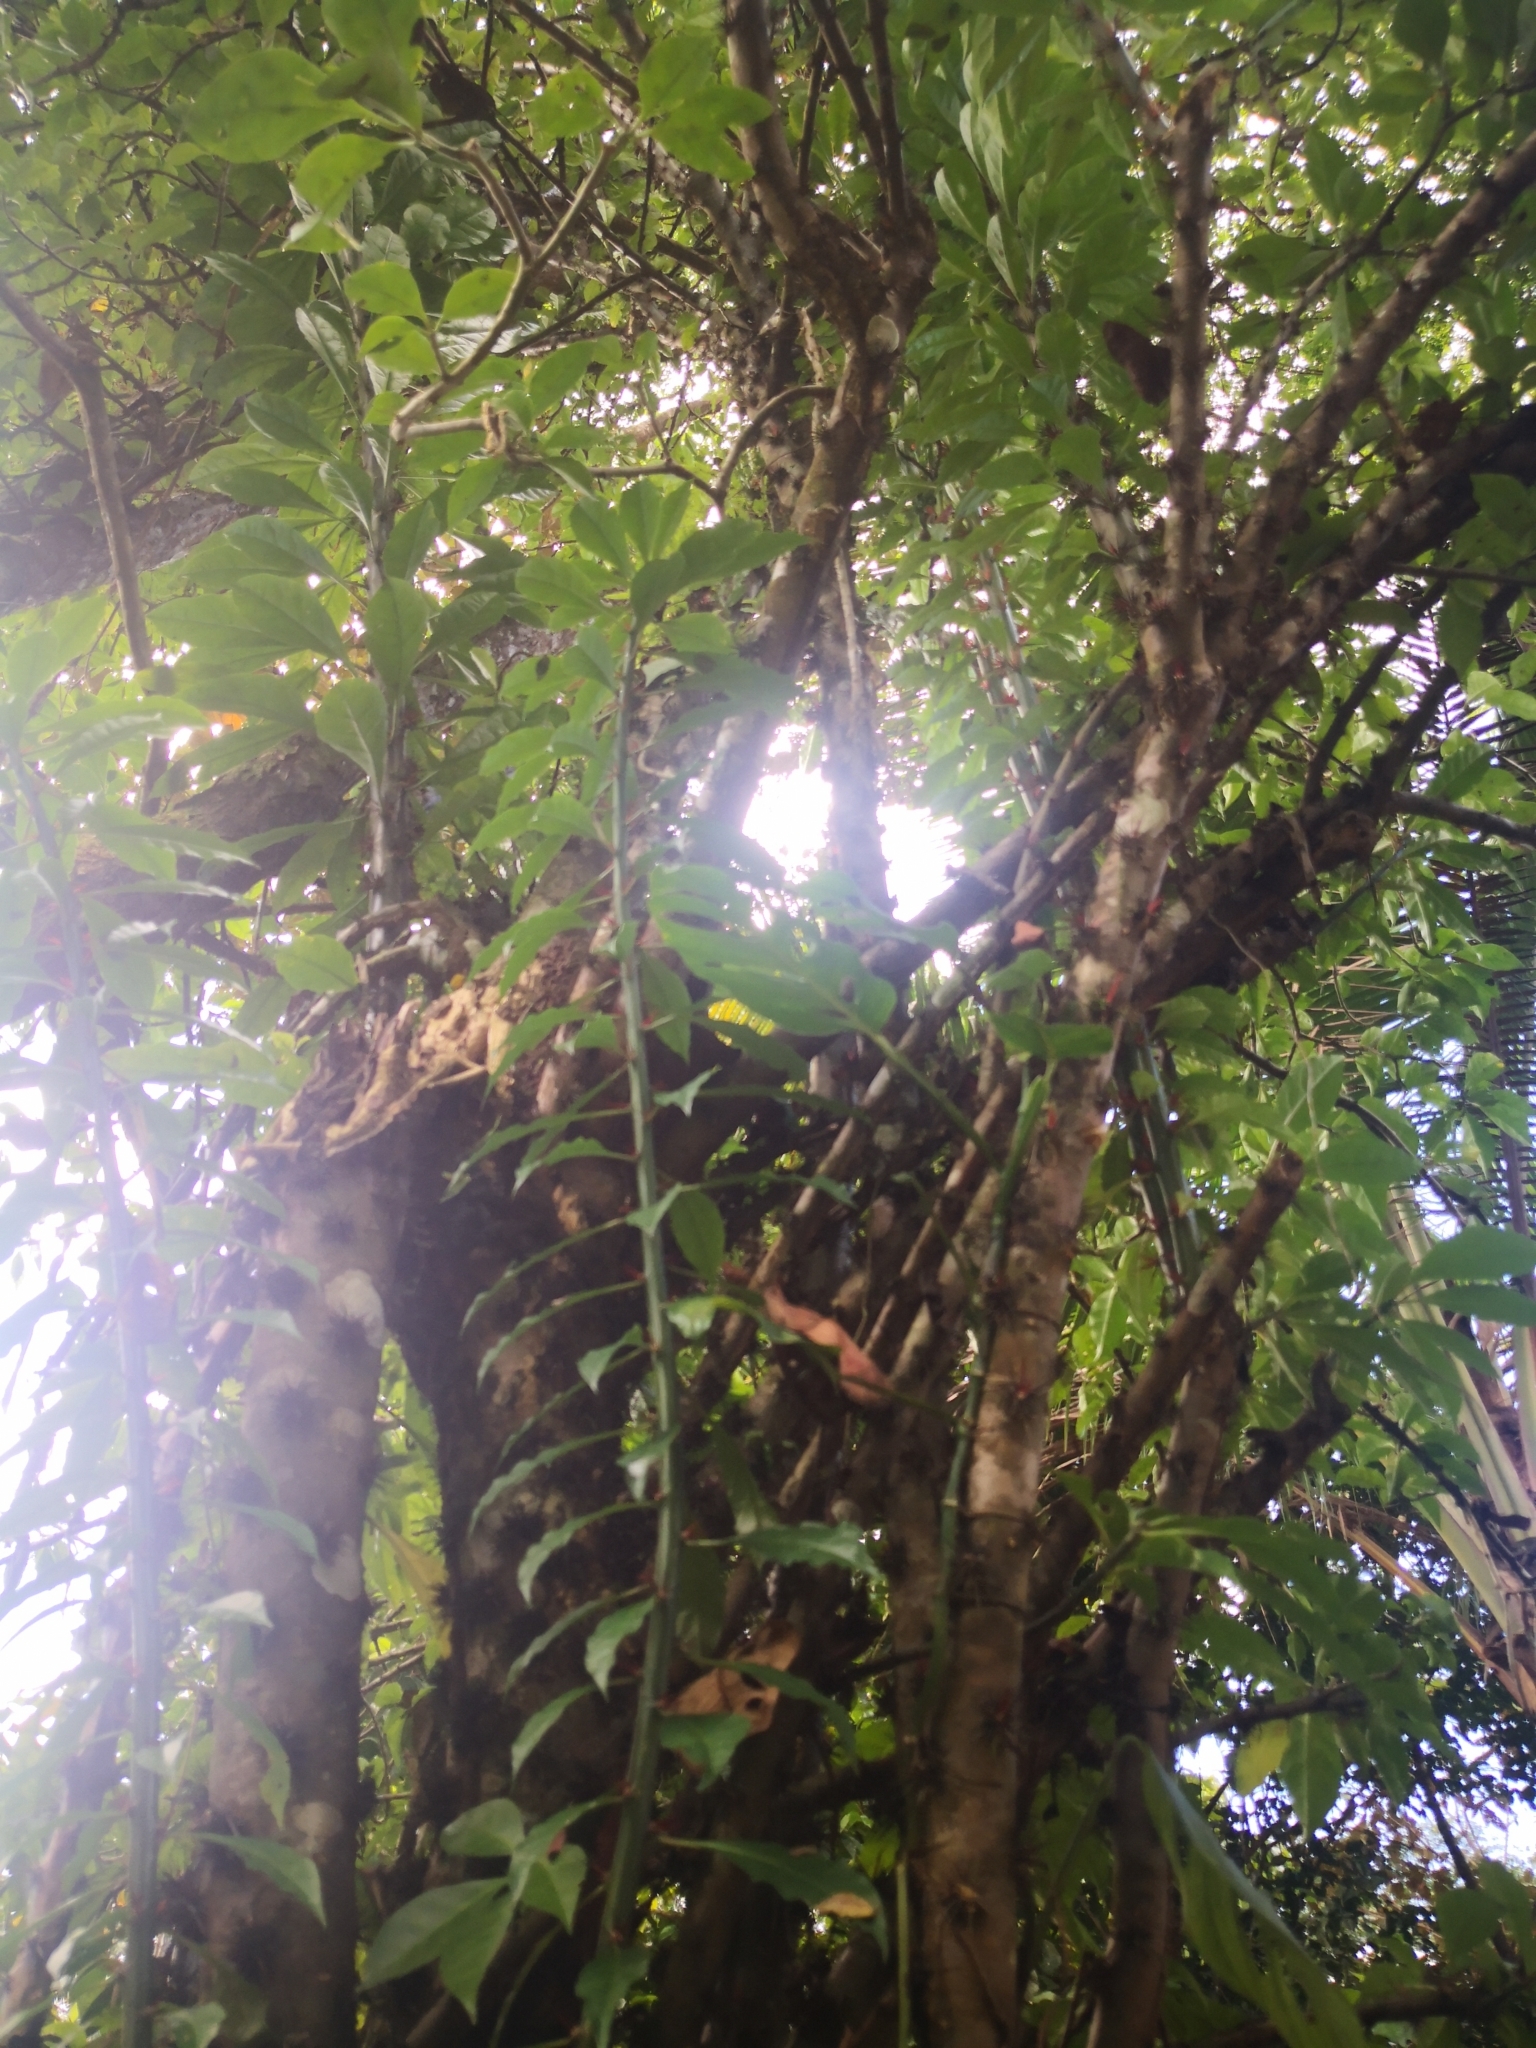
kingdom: Plantae
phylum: Tracheophyta
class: Magnoliopsida
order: Caryophyllales
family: Cactaceae
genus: Leuenbergeria
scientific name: Leuenbergeria bleo
